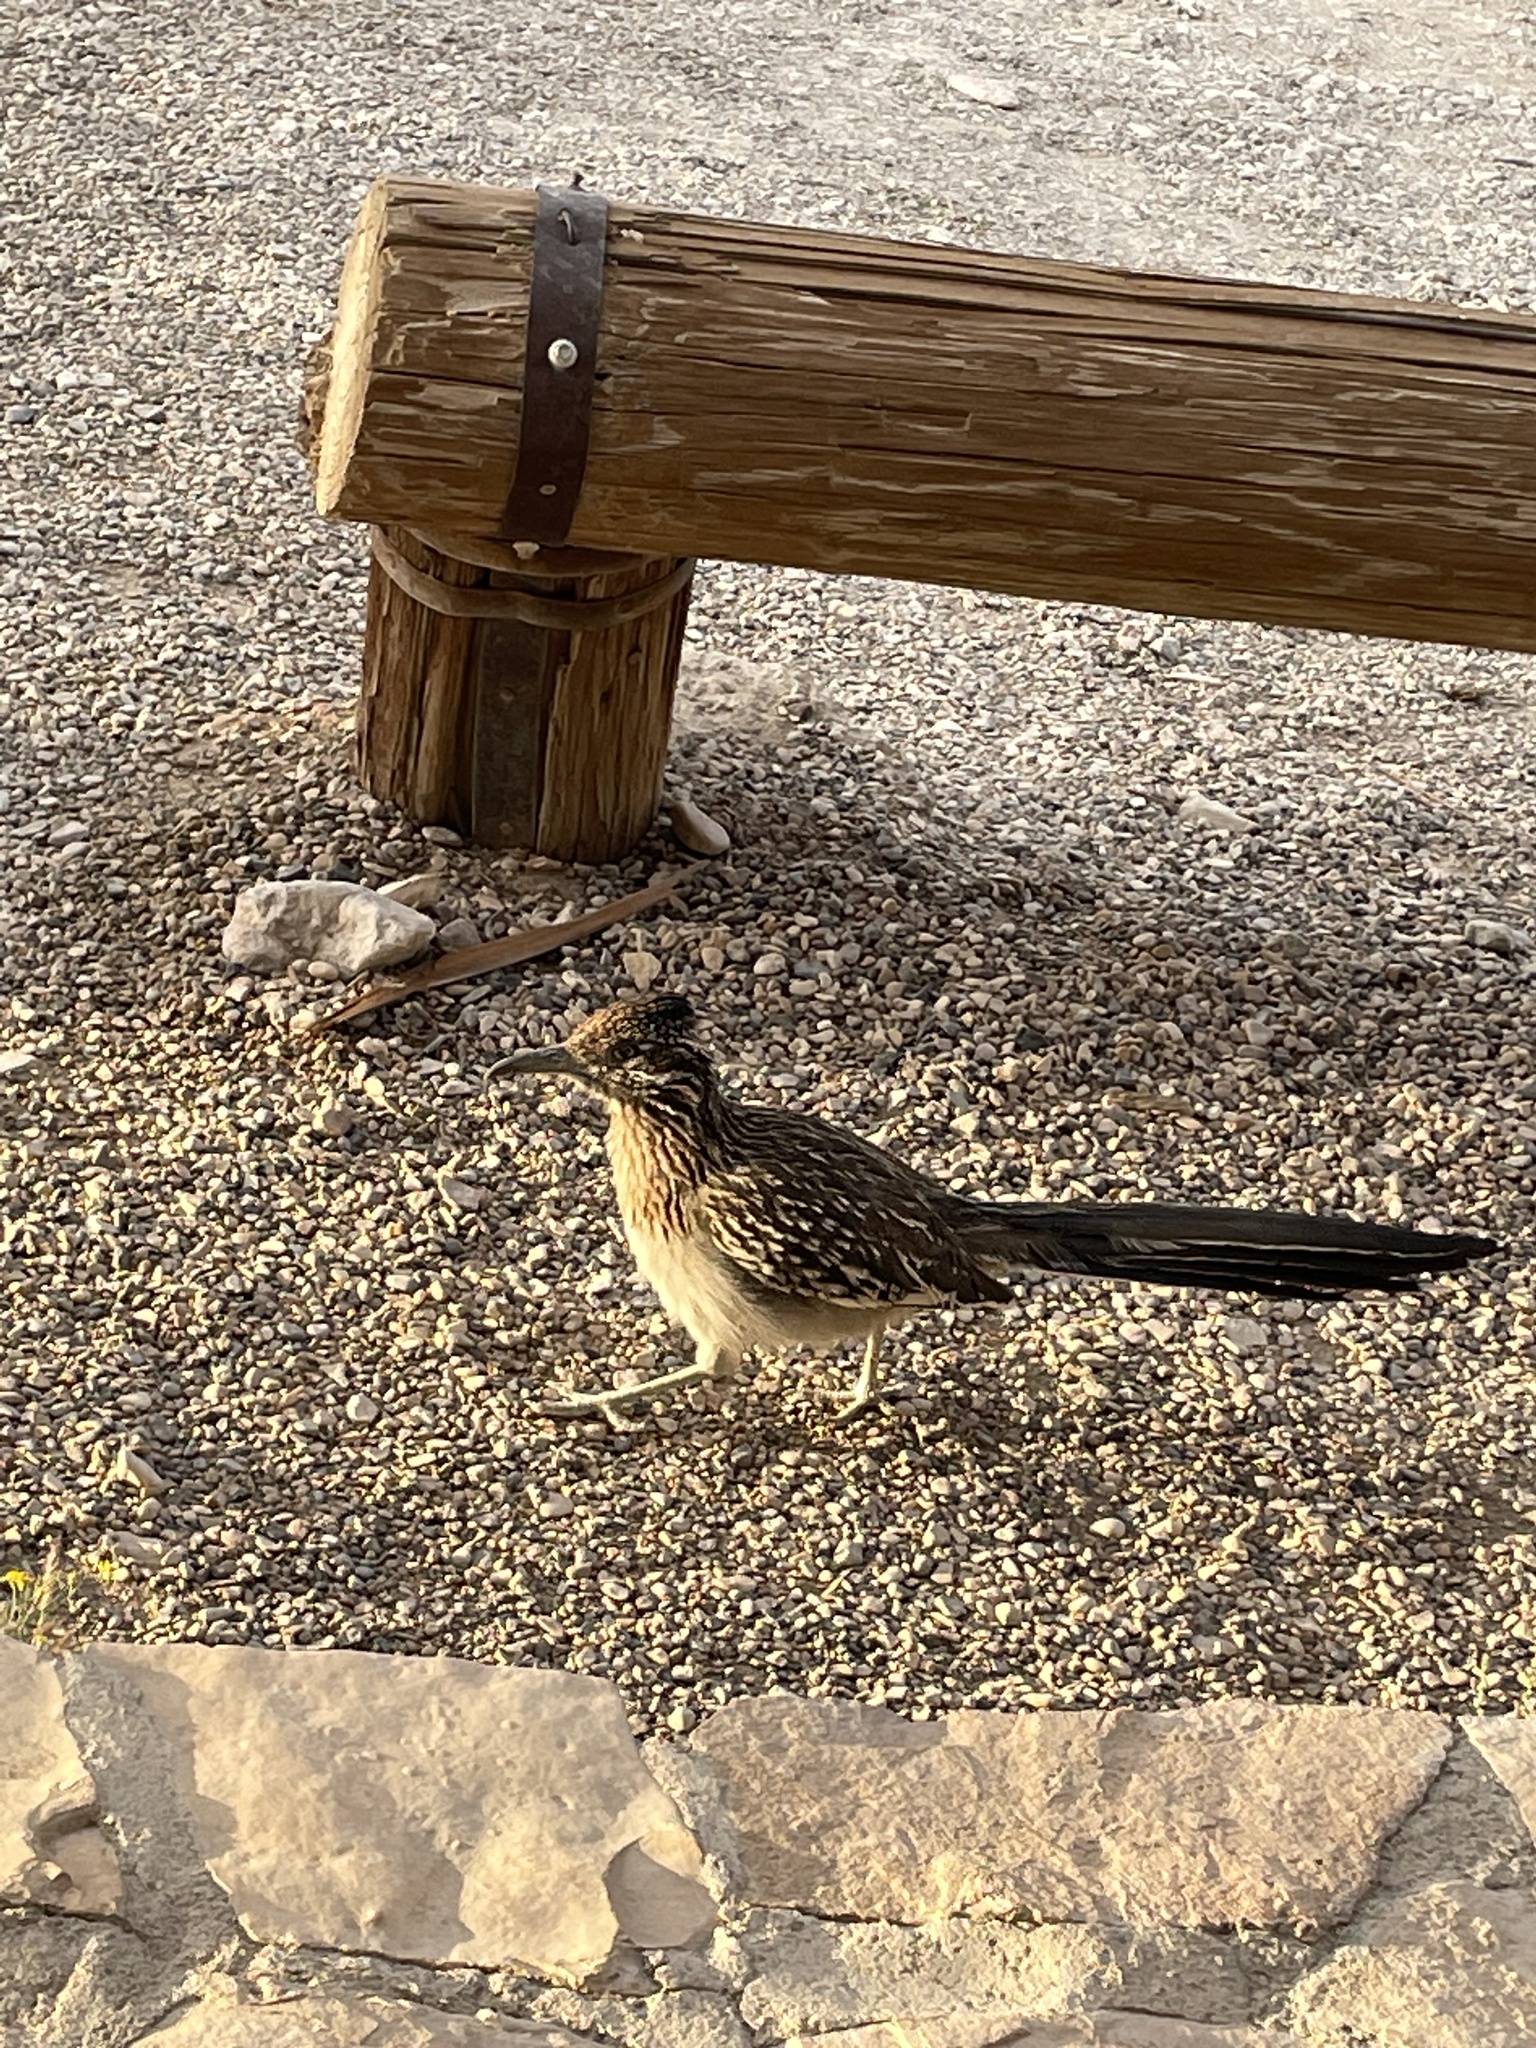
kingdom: Animalia
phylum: Chordata
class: Aves
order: Cuculiformes
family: Cuculidae
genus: Geococcyx
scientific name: Geococcyx californianus
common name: Greater roadrunner
